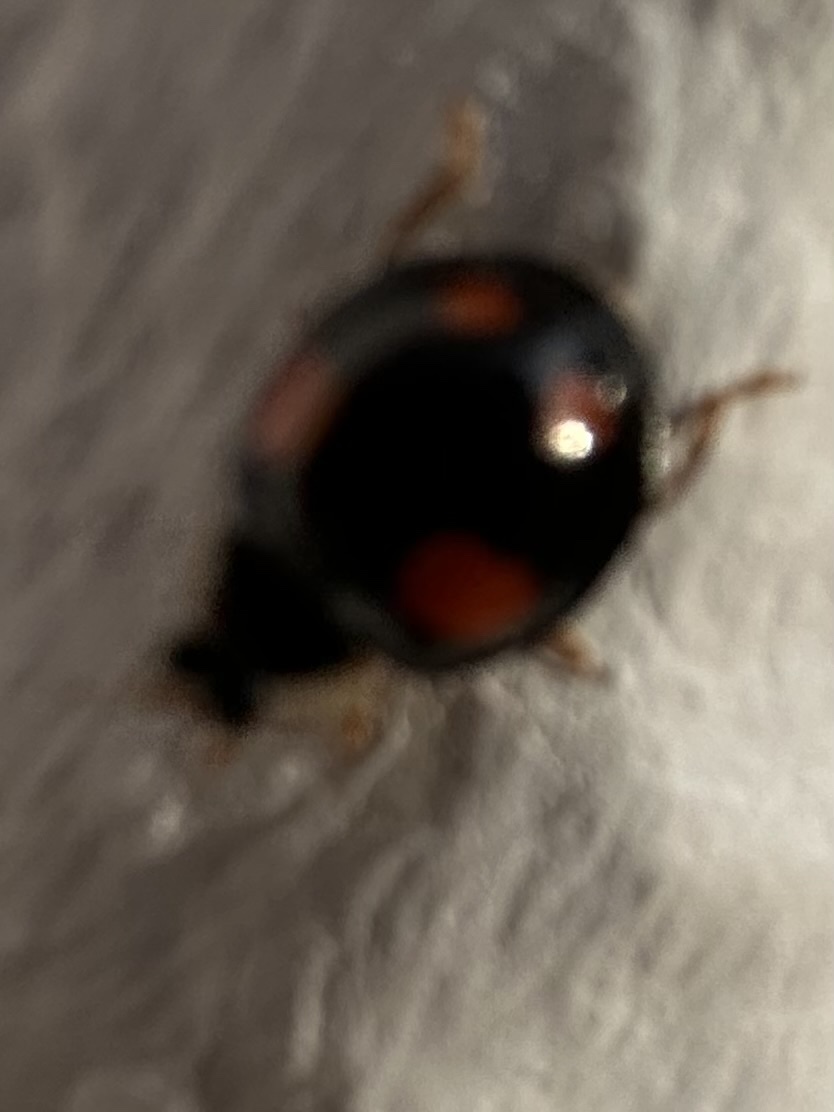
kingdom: Animalia
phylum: Arthropoda
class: Insecta
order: Coleoptera
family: Coccinellidae
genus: Harmonia
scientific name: Harmonia axyridis
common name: Harlequin ladybird
